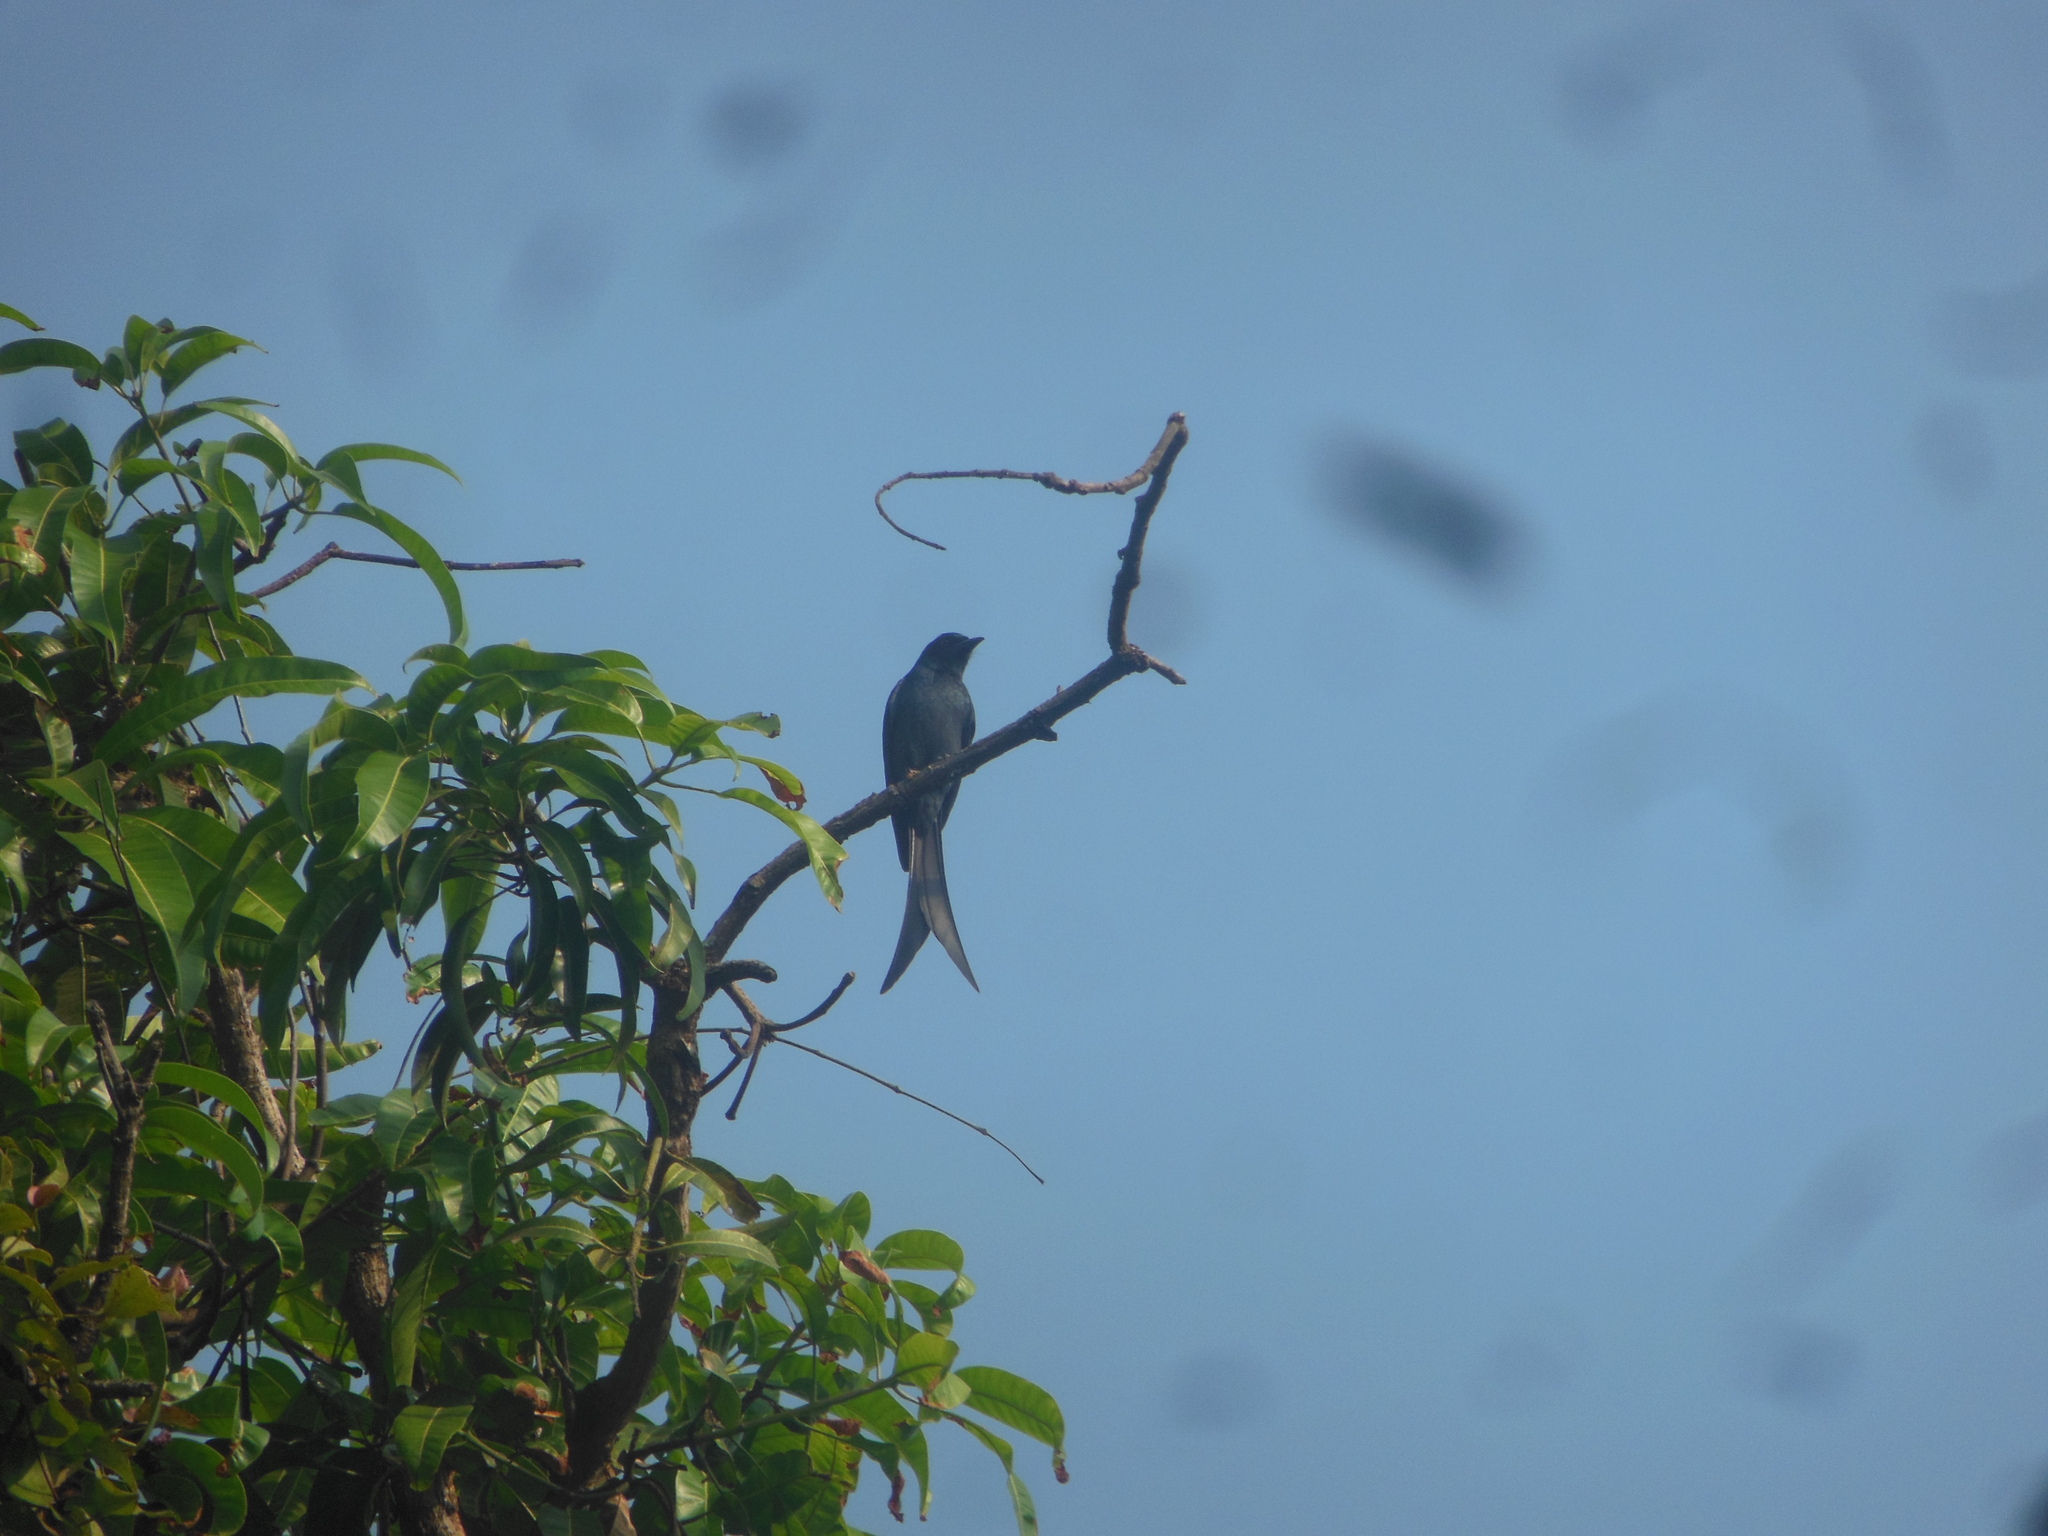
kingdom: Animalia
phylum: Chordata
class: Aves
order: Passeriformes
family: Dicruridae
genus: Dicrurus
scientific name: Dicrurus leucophaeus
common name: Ashy drongo
